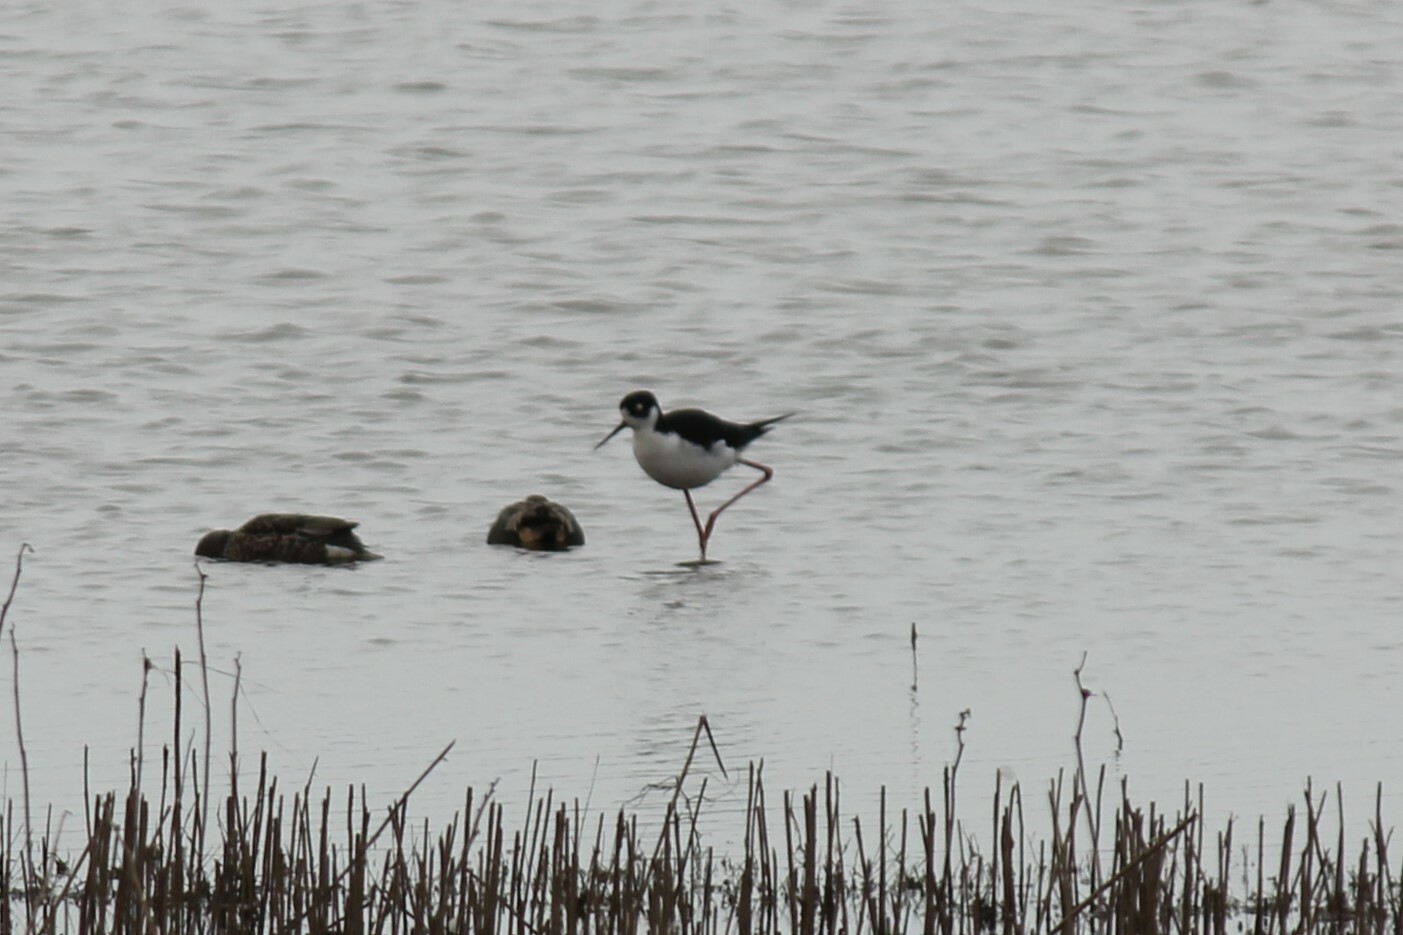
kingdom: Animalia
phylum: Chordata
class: Aves
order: Charadriiformes
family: Recurvirostridae
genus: Himantopus
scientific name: Himantopus mexicanus
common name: Black-necked stilt
